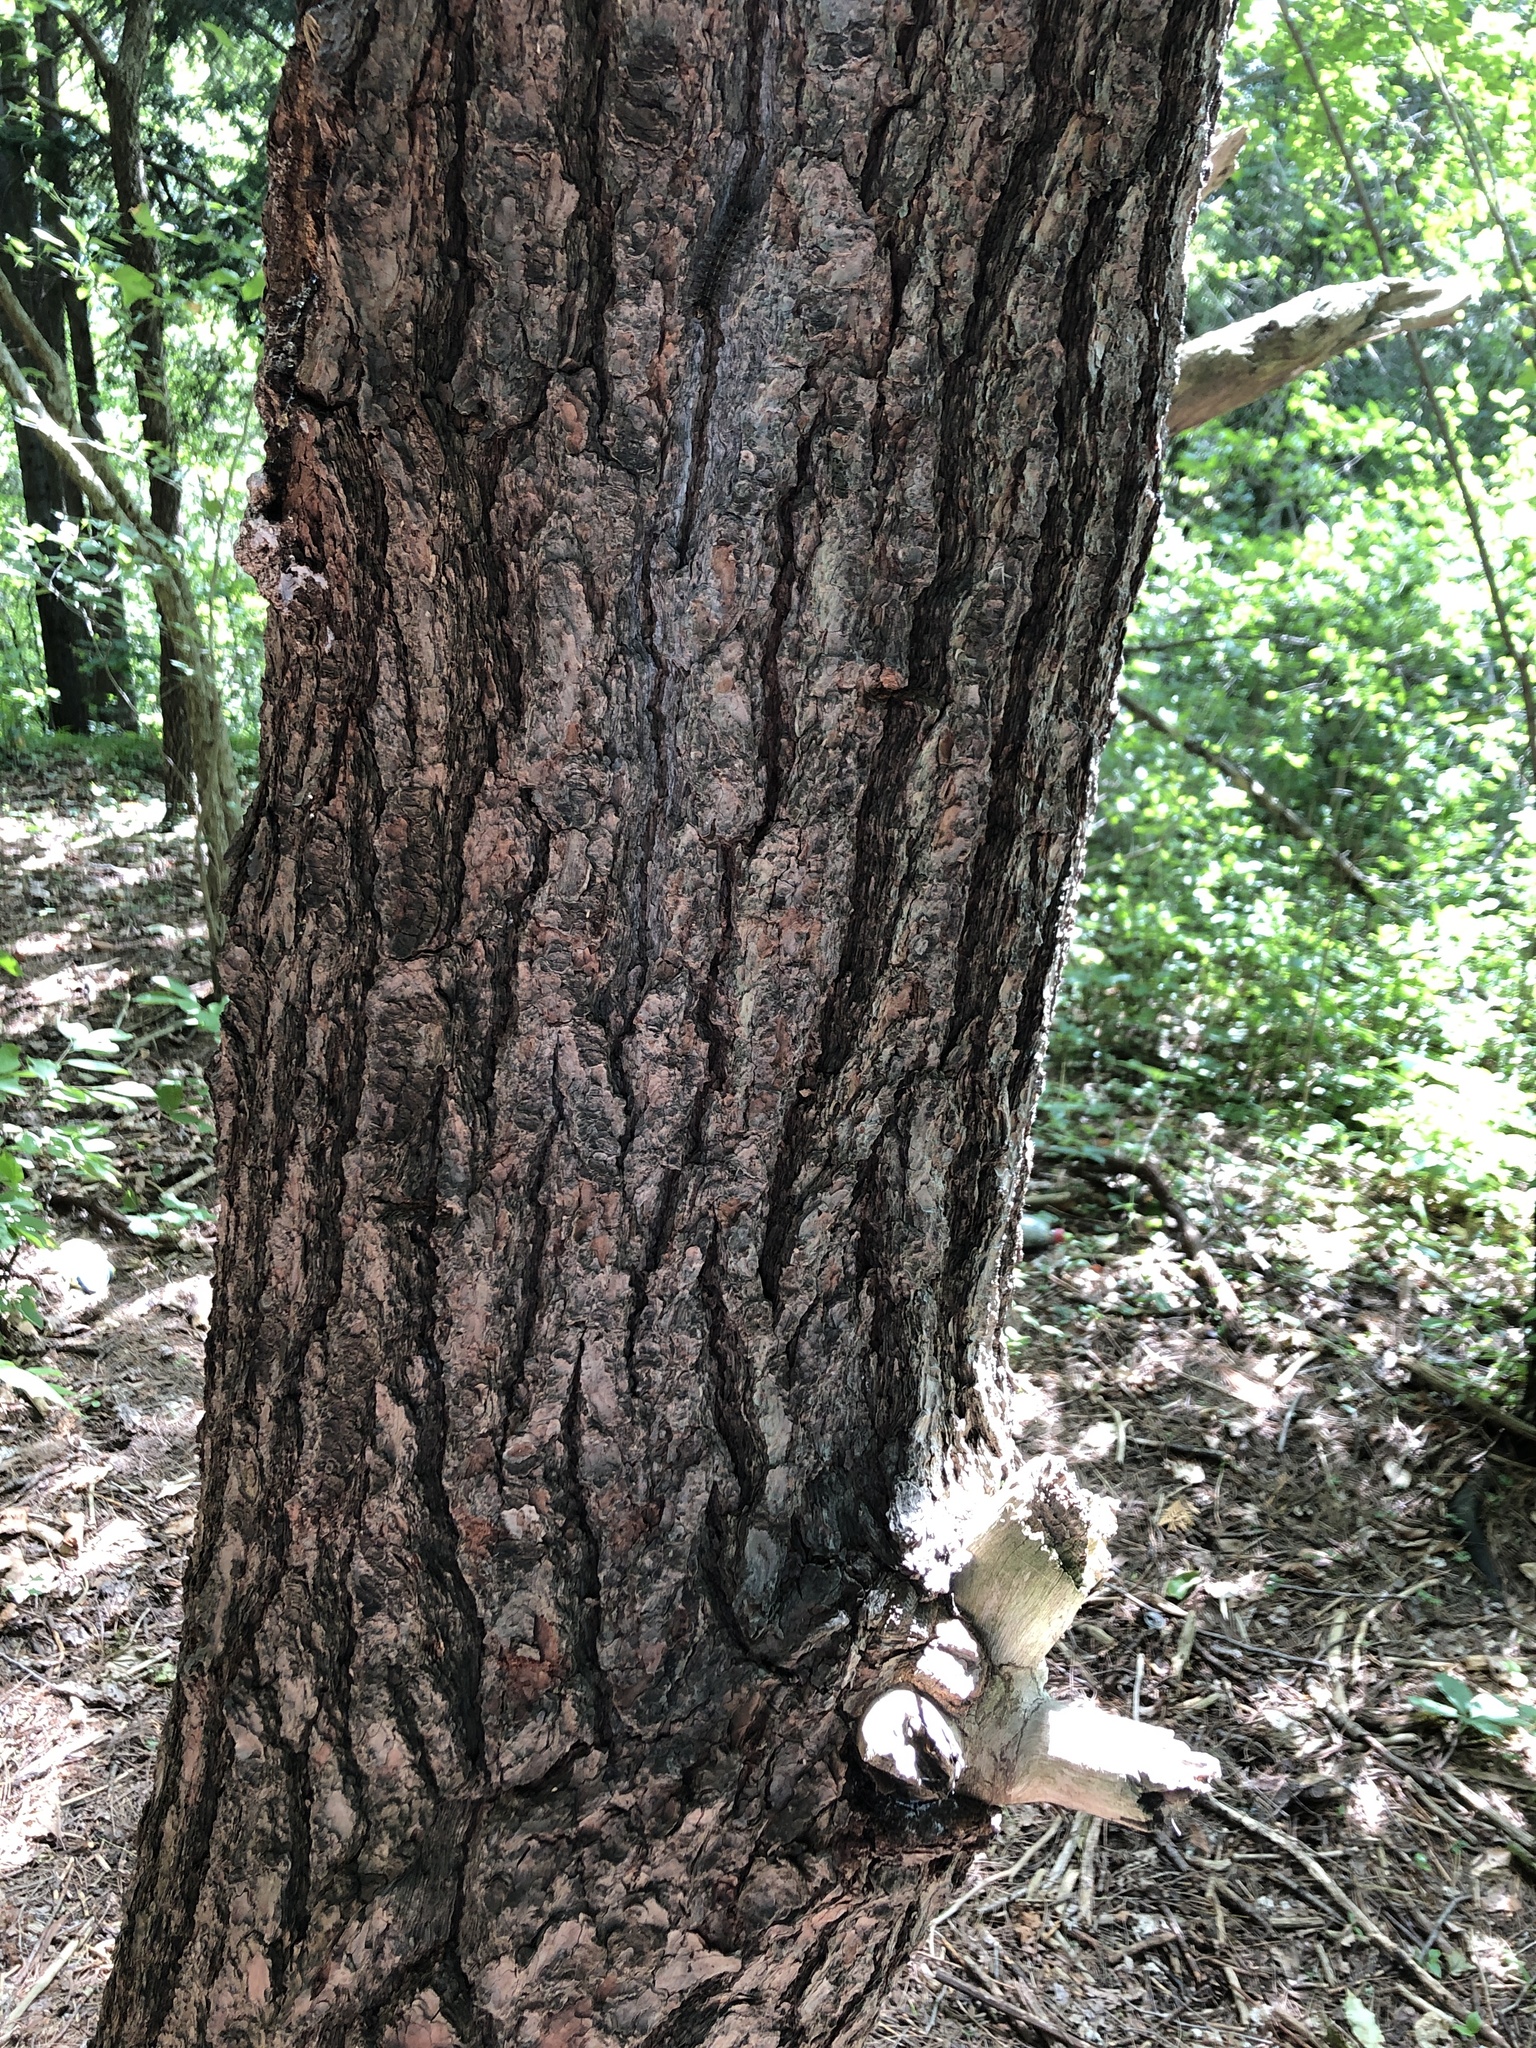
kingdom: Plantae
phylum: Tracheophyta
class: Pinopsida
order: Pinales
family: Pinaceae
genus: Pinus
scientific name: Pinus strobus
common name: Weymouth pine
